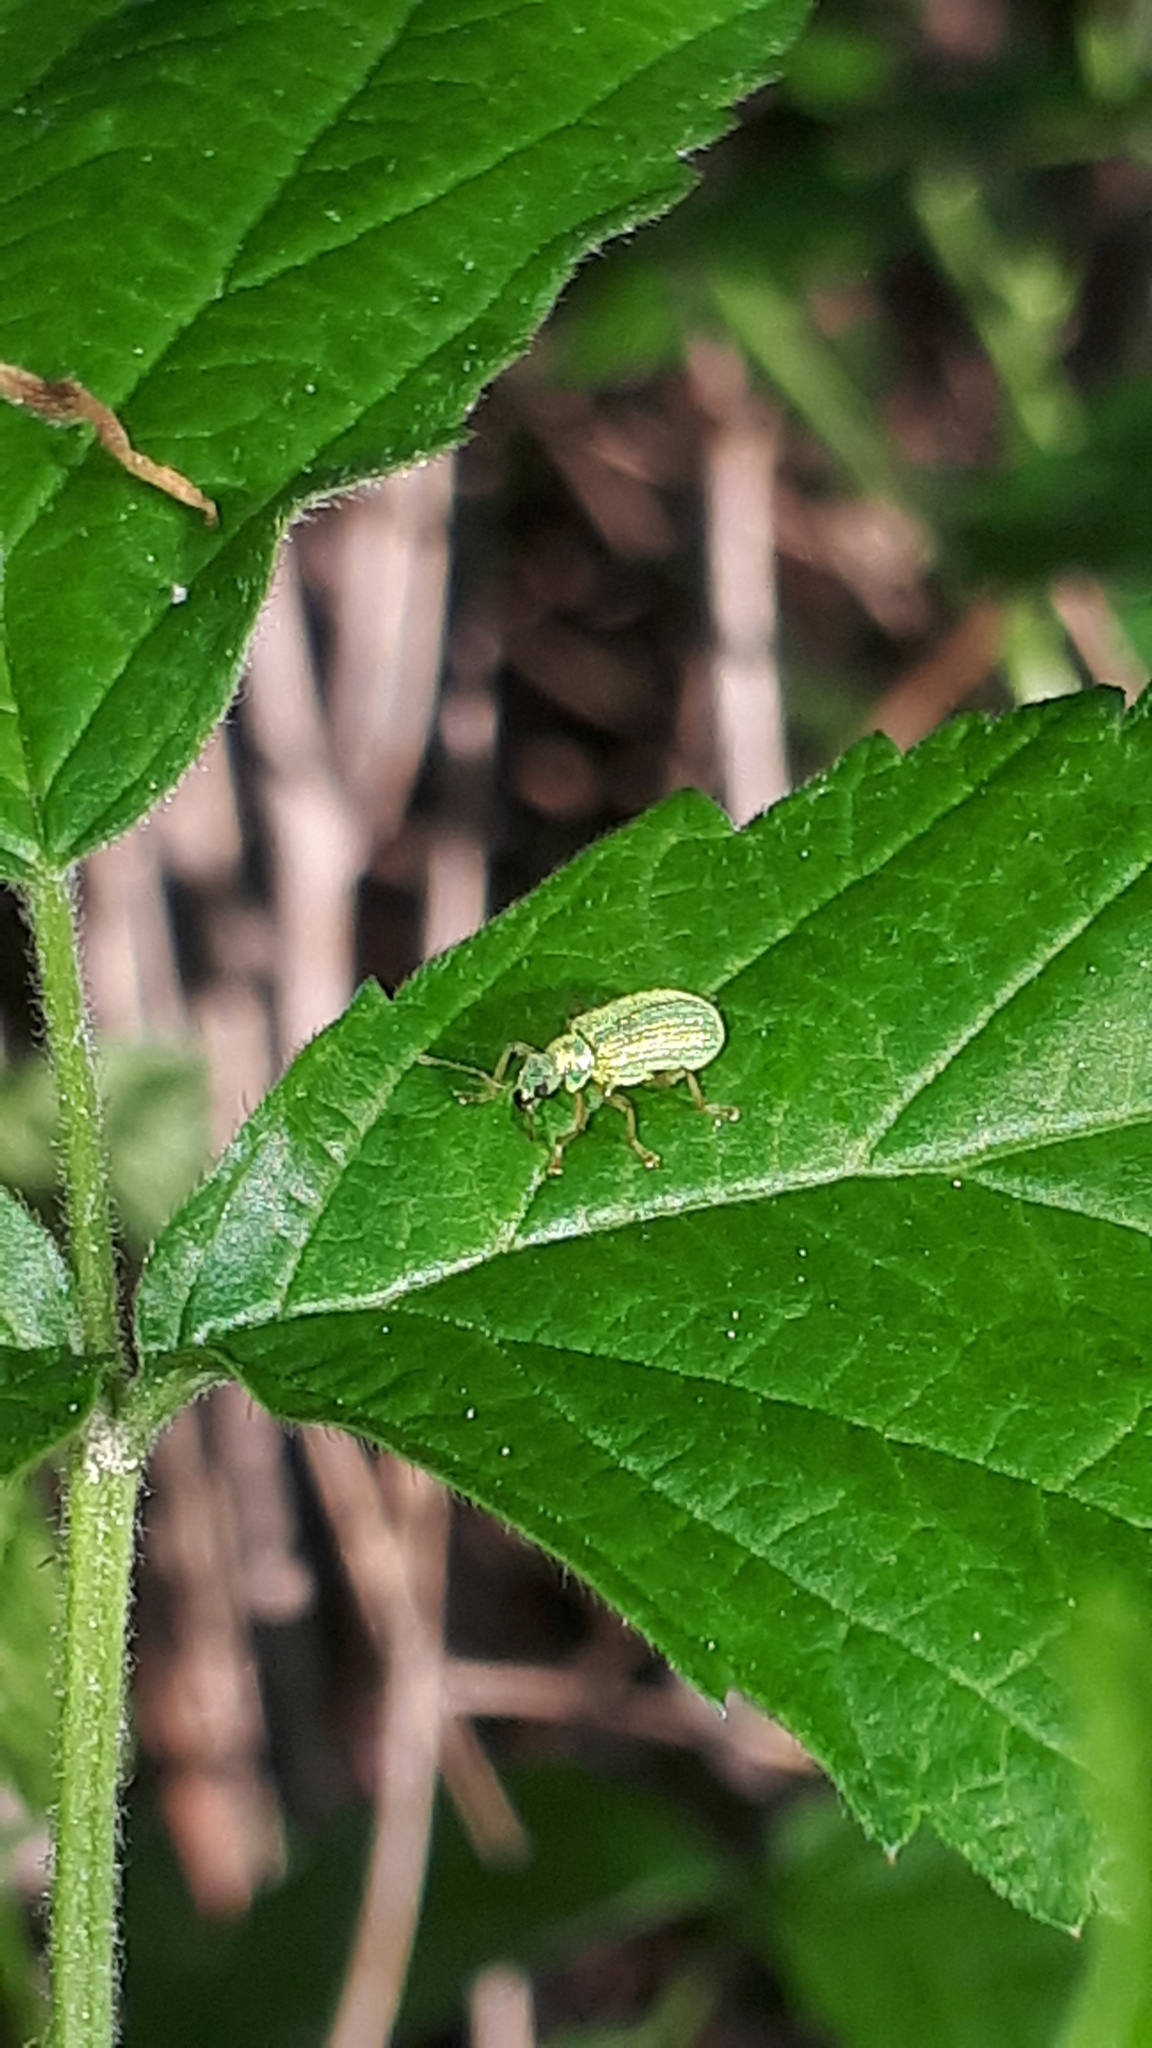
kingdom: Animalia
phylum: Arthropoda
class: Insecta
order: Coleoptera
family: Curculionidae
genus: Polydrusus
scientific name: Polydrusus pterygomalis
